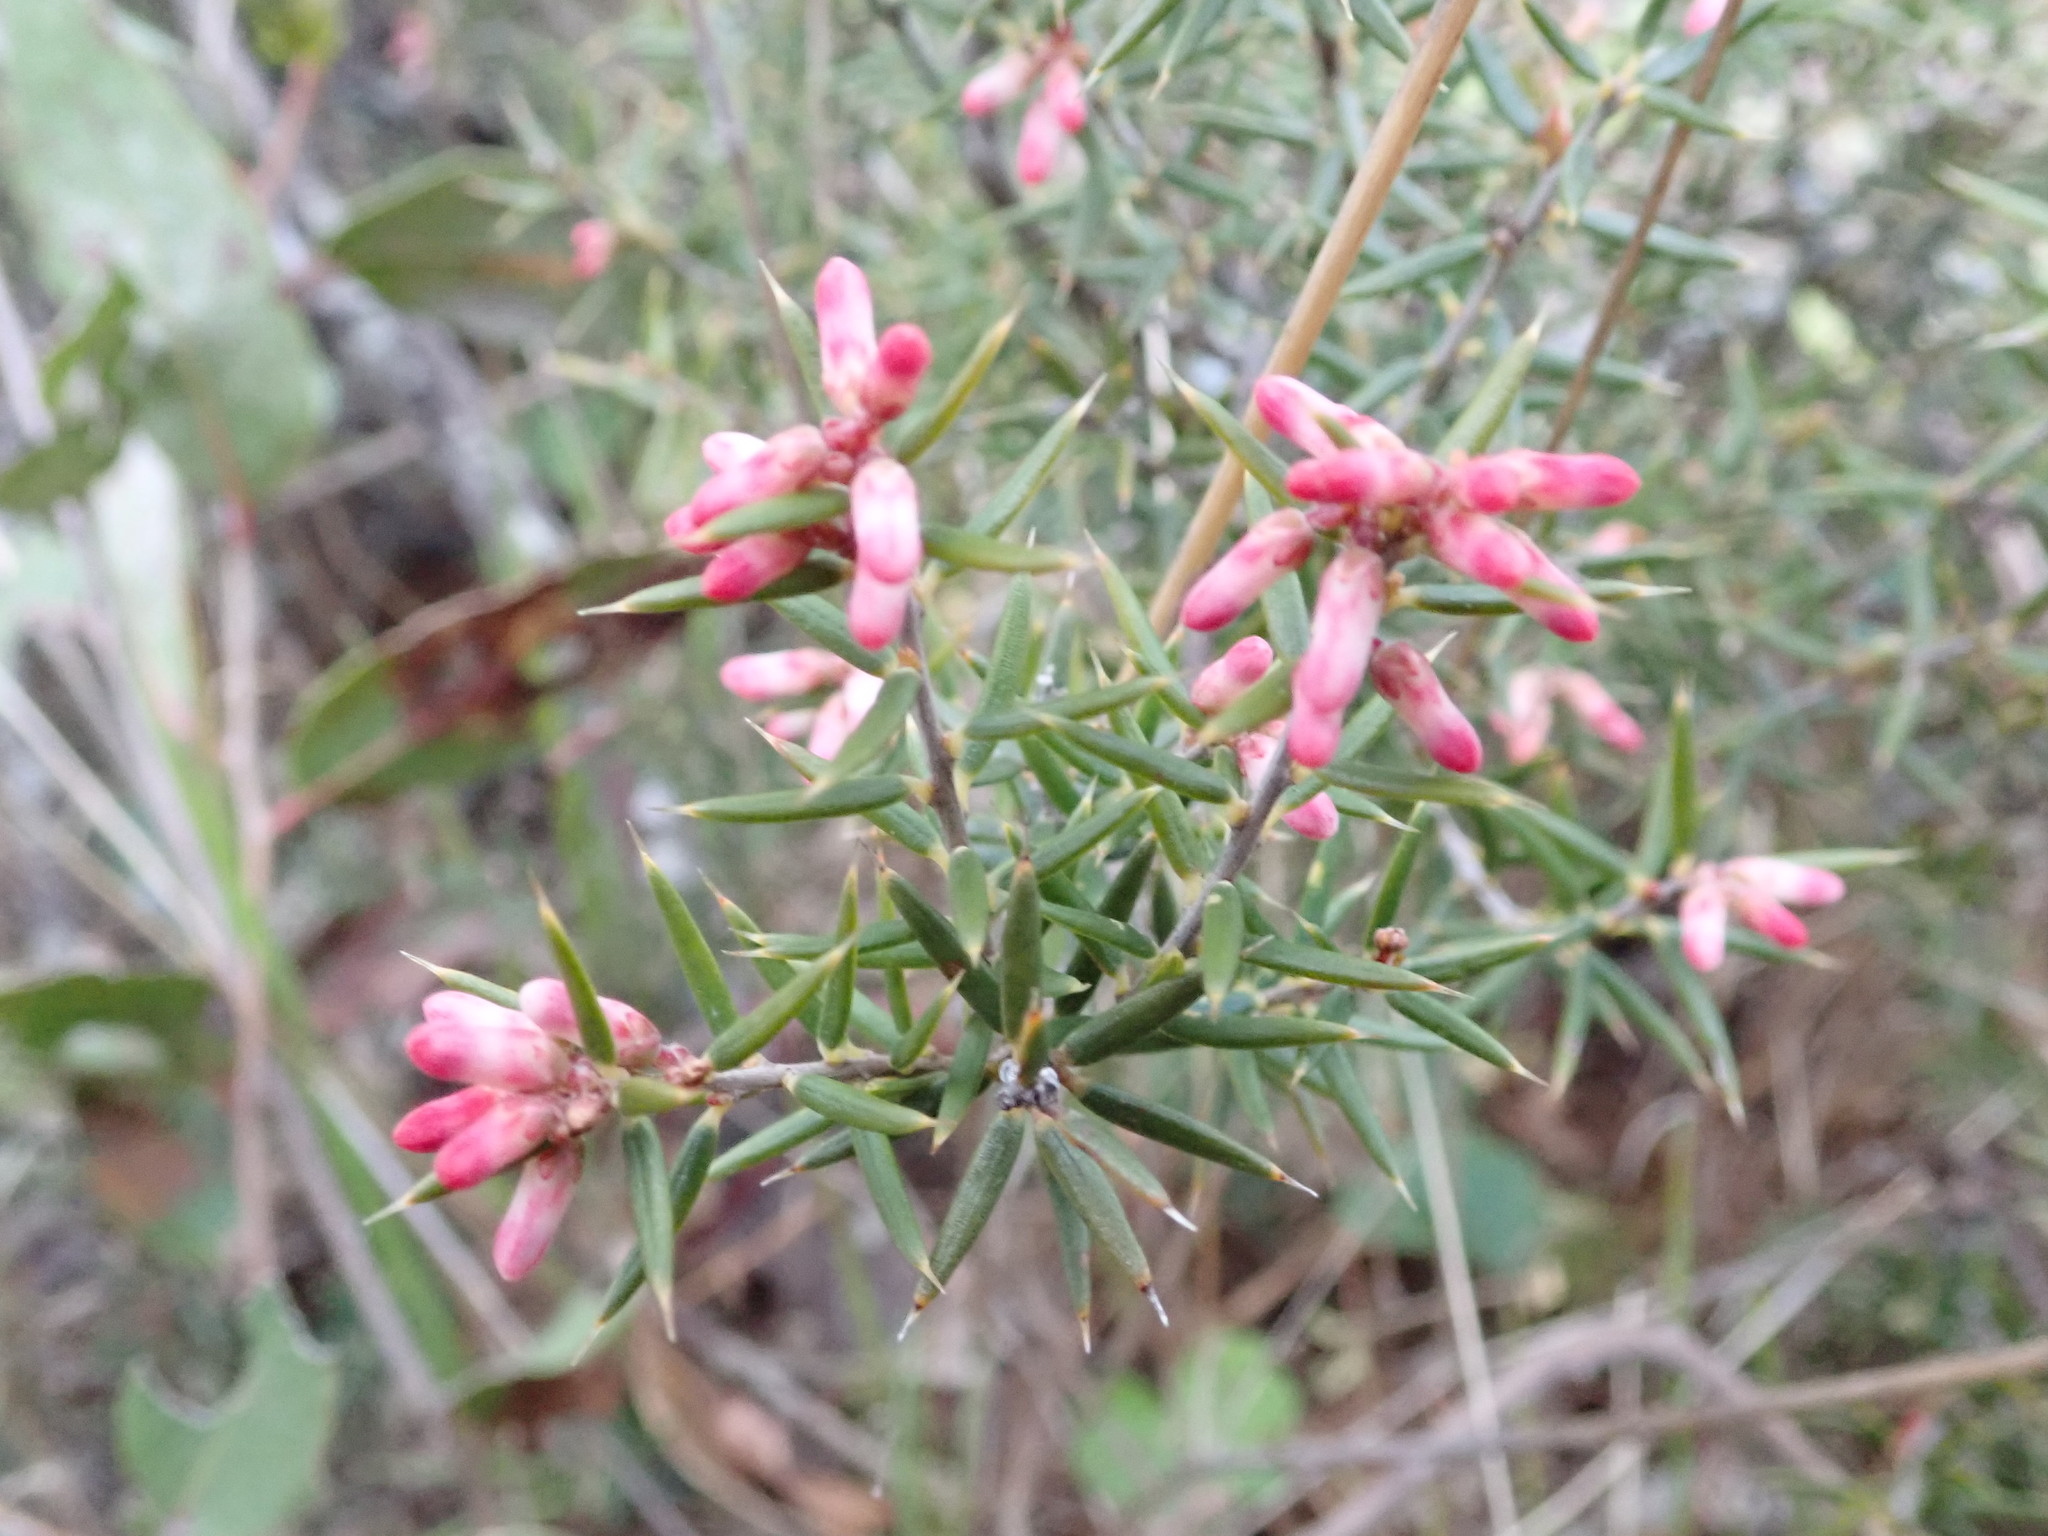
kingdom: Plantae
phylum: Tracheophyta
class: Magnoliopsida
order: Ericales
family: Ericaceae
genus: Lissanthe
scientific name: Lissanthe strigosa
